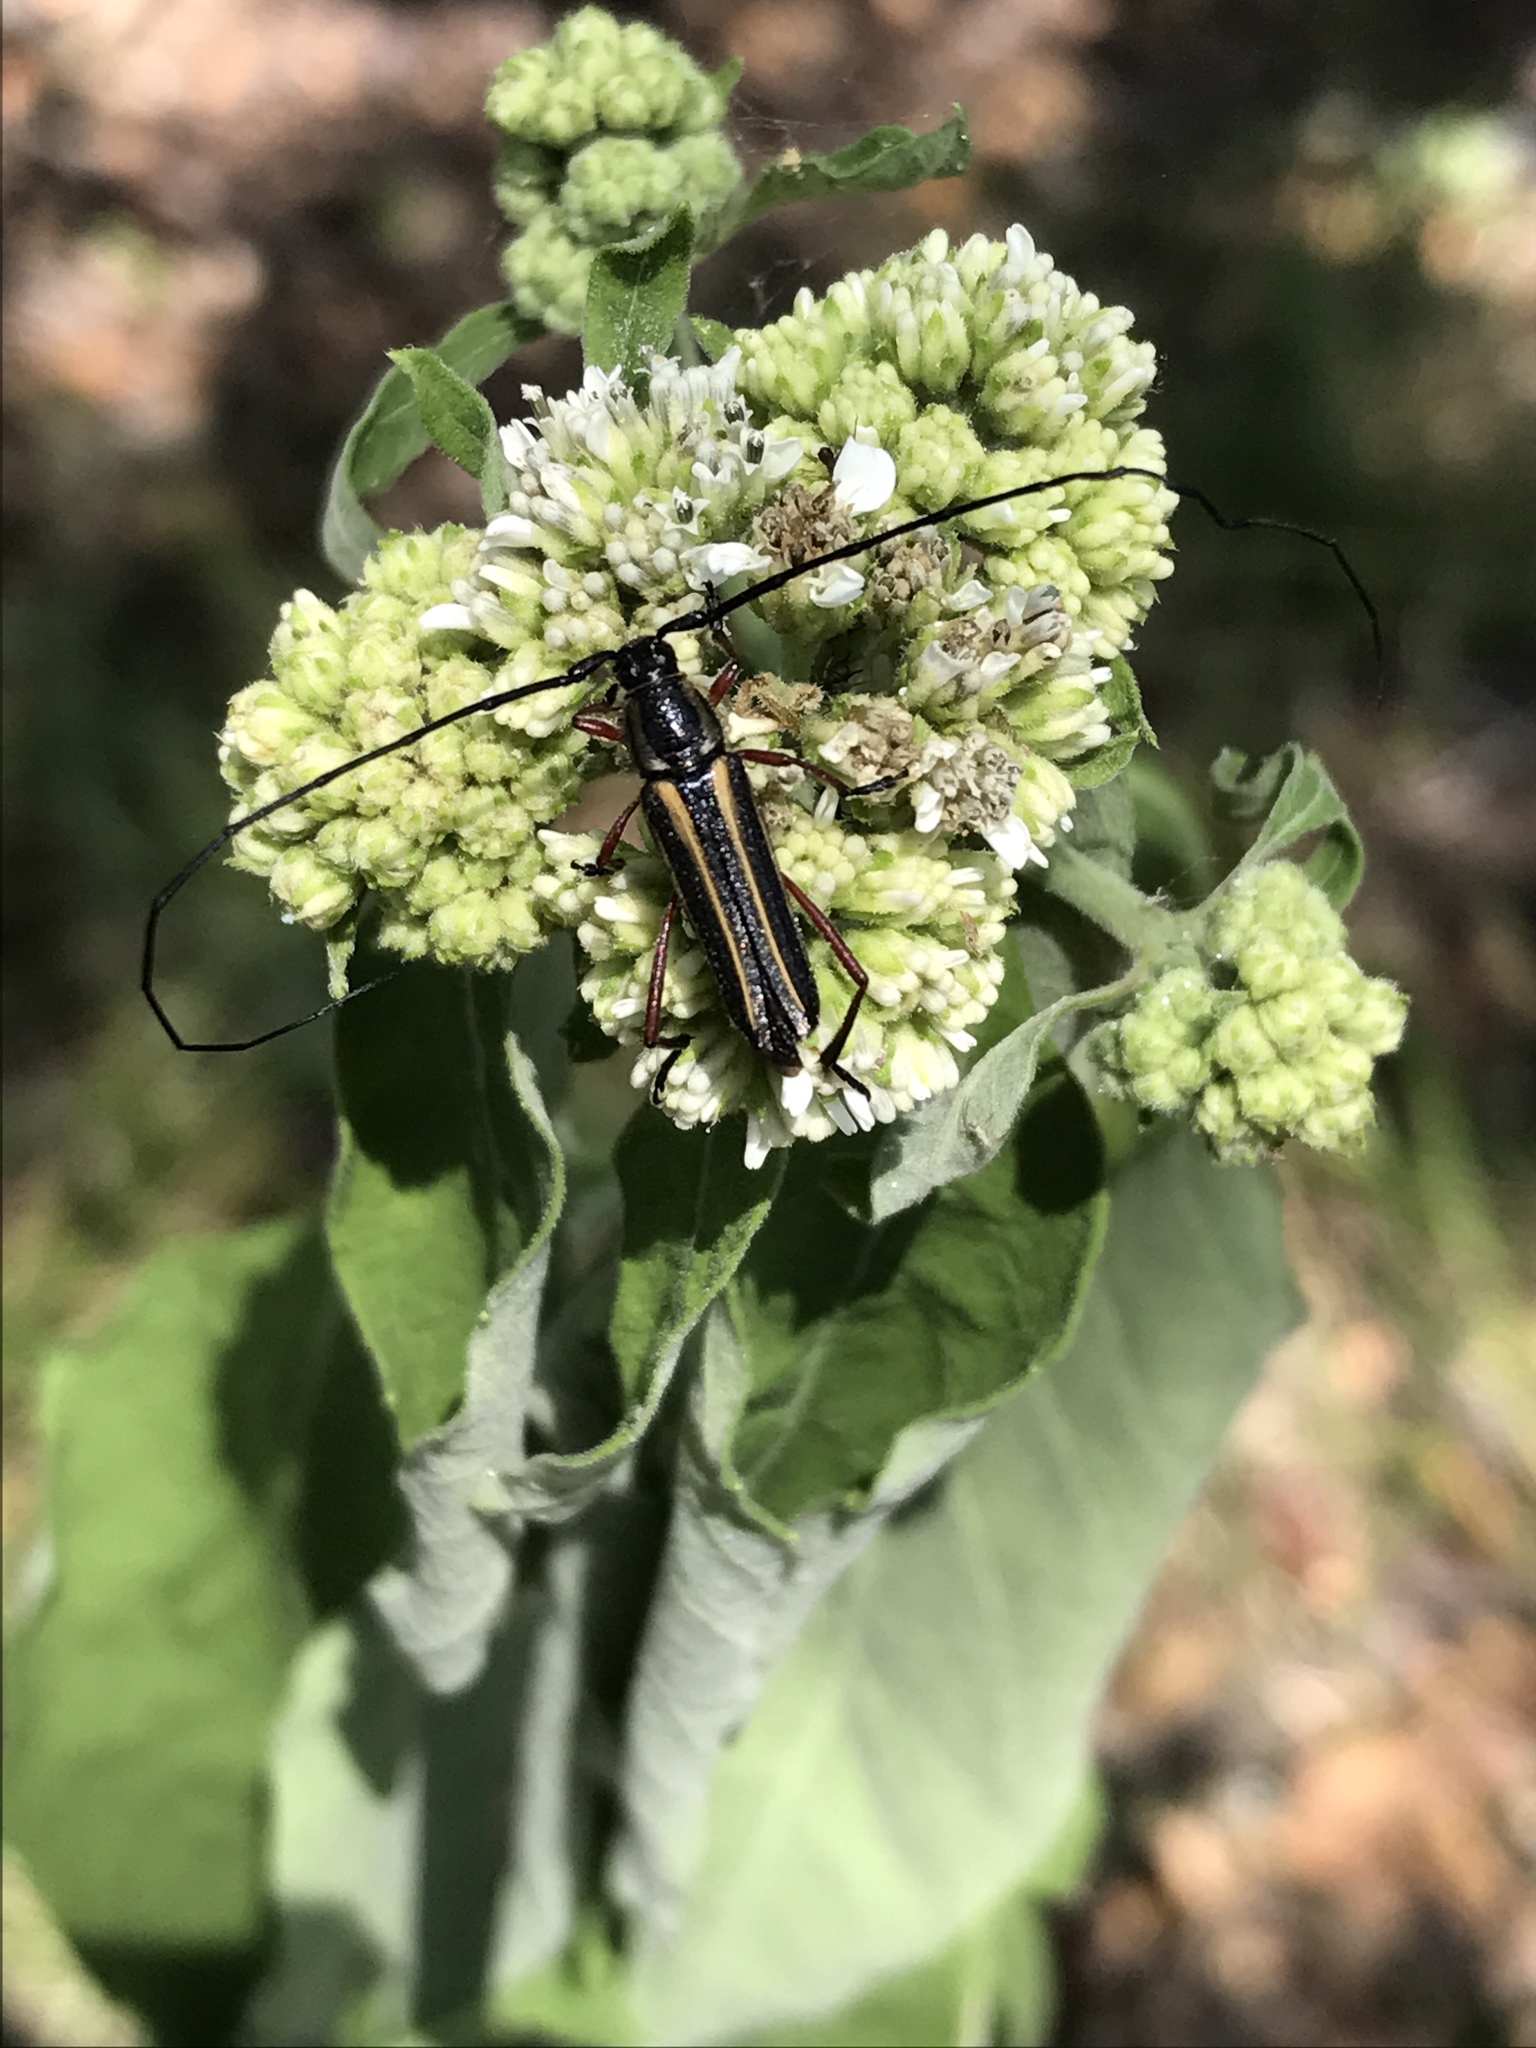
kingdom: Animalia
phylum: Arthropoda
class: Insecta
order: Coleoptera
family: Cerambycidae
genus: Sphaenothecus
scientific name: Sphaenothecus bilineatus
